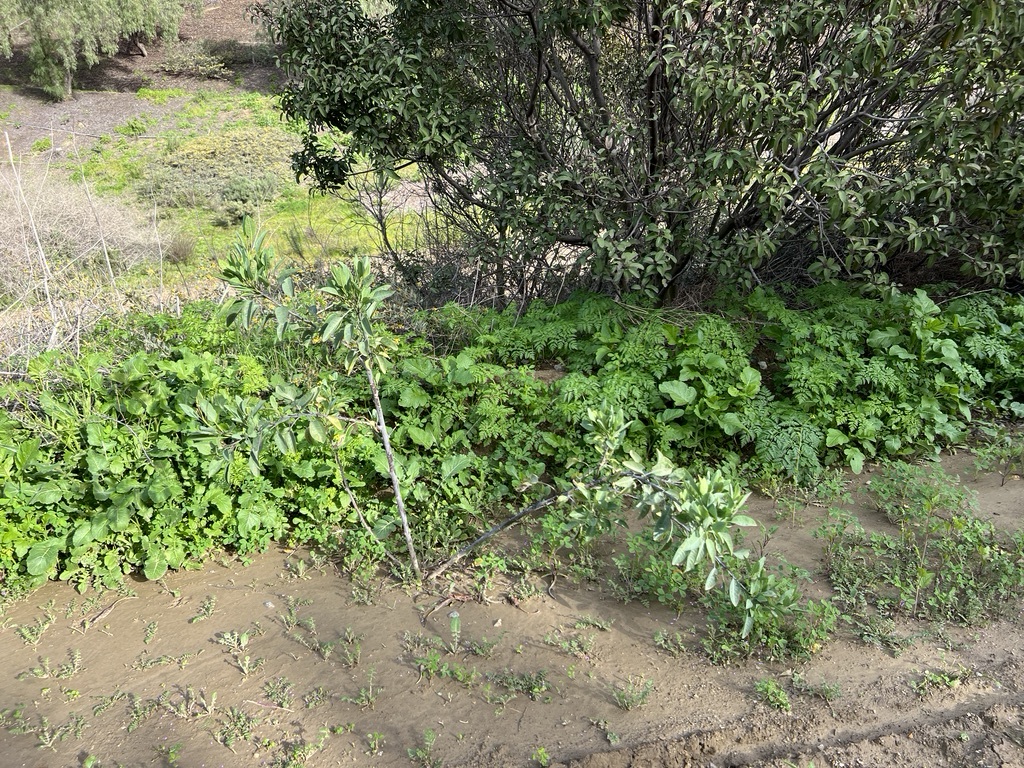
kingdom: Plantae
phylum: Tracheophyta
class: Magnoliopsida
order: Solanales
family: Solanaceae
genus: Nicotiana
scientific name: Nicotiana glauca
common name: Tree tobacco
